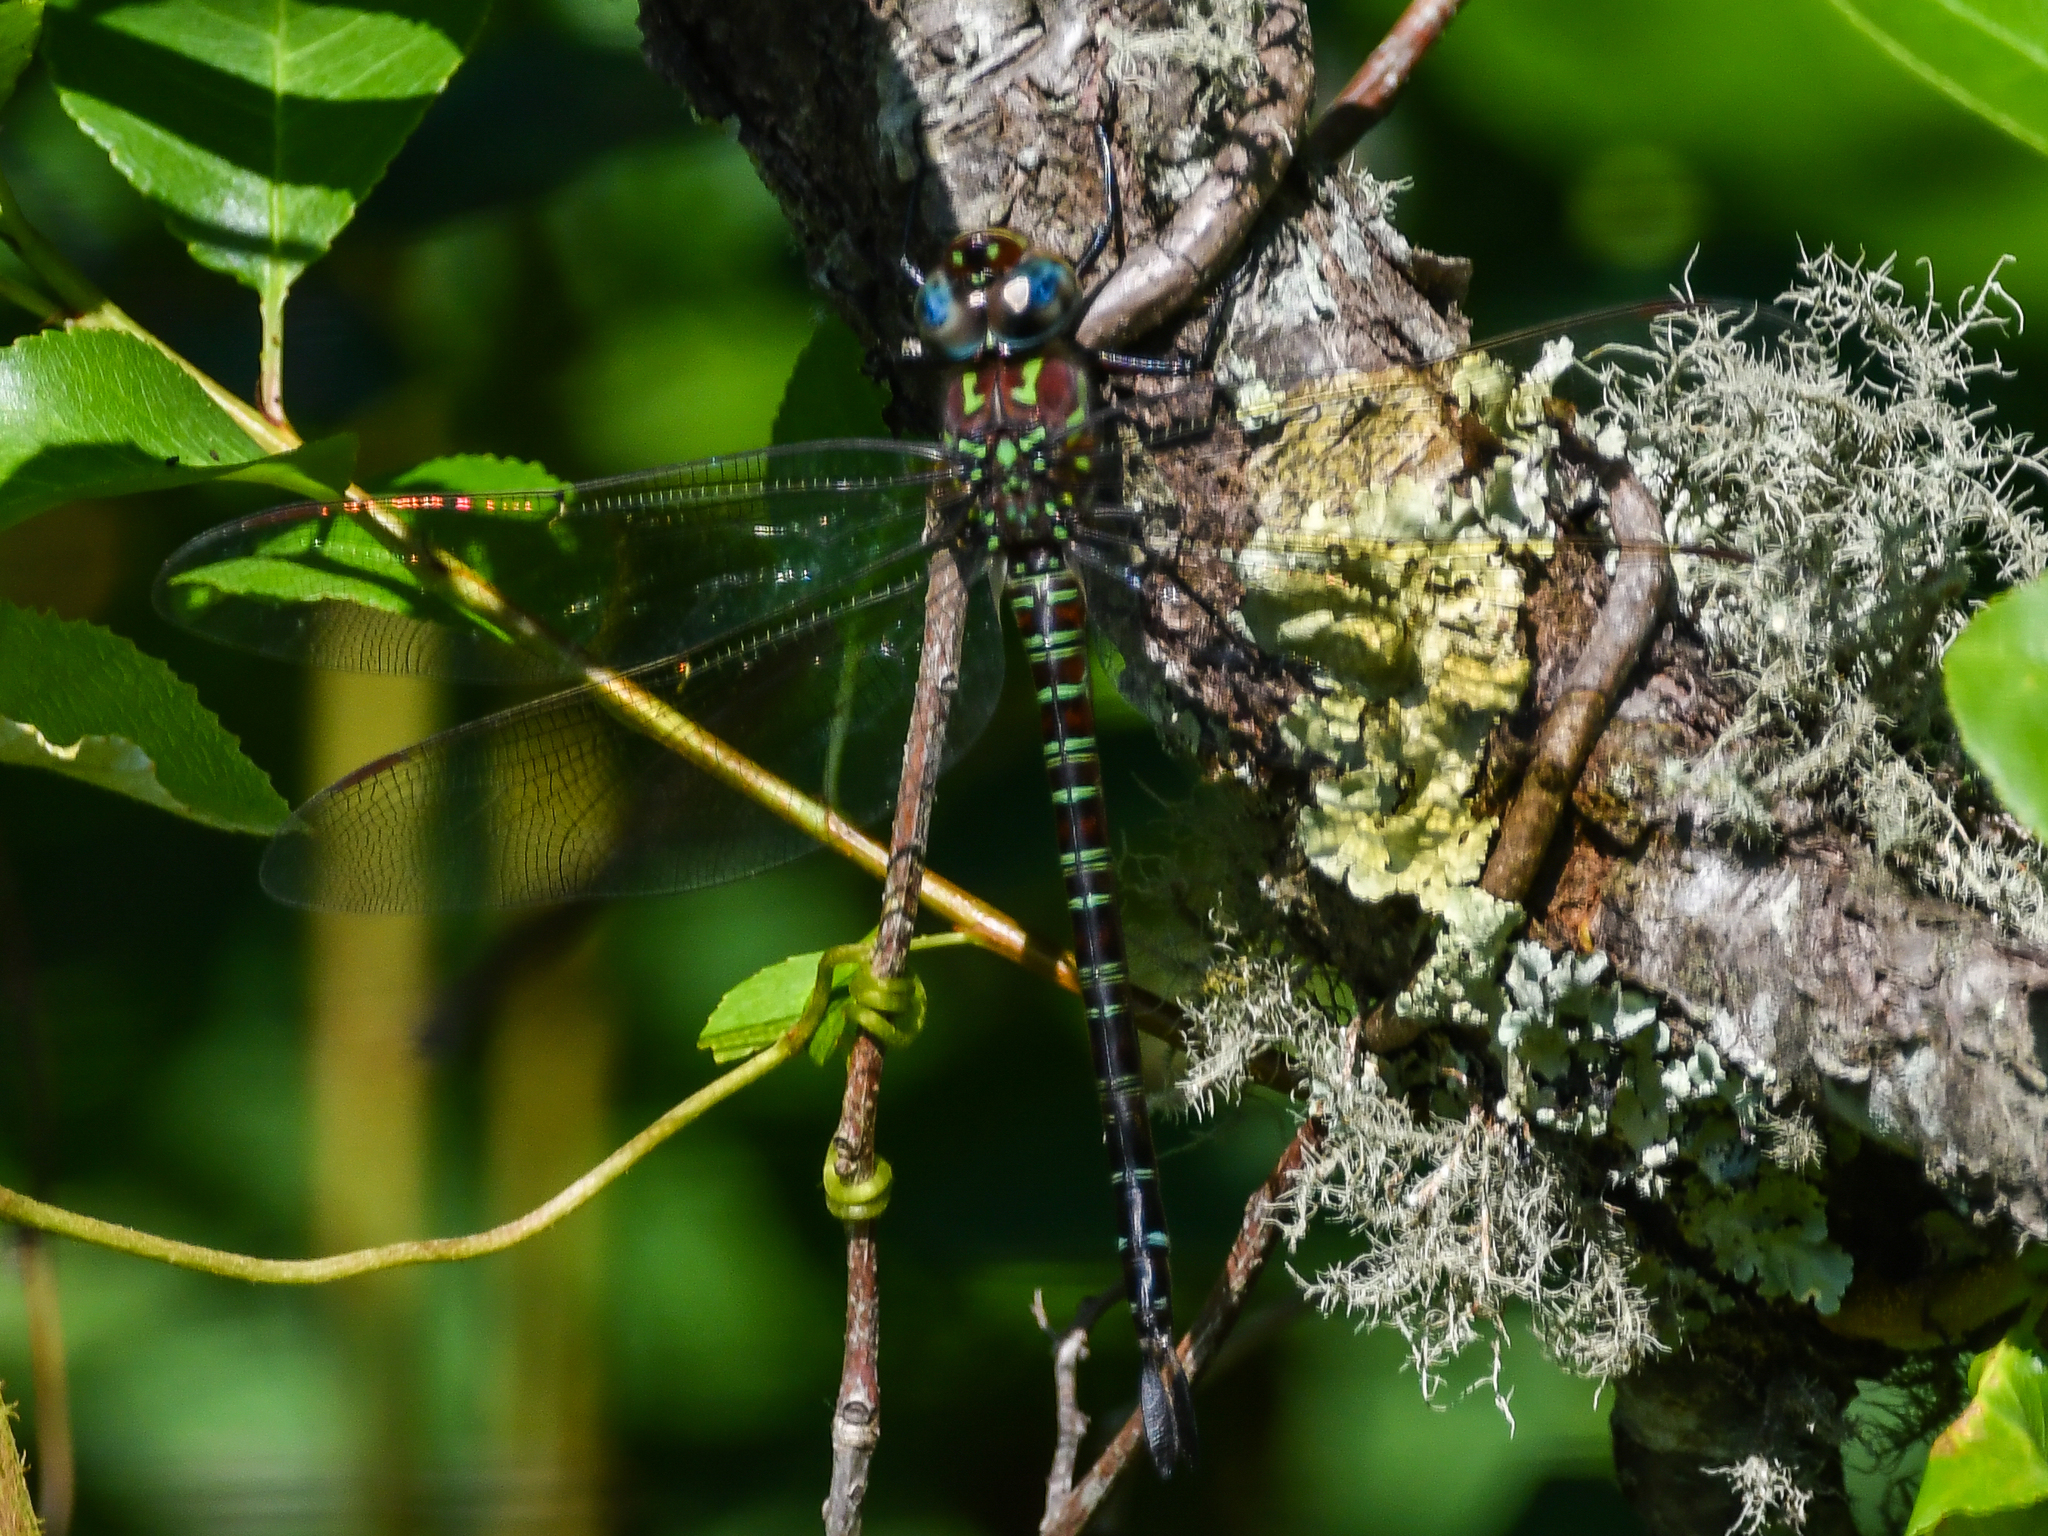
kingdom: Animalia
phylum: Arthropoda
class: Insecta
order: Odonata
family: Aeshnidae
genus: Epiaeschna
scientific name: Epiaeschna heros
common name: Swamp darner
